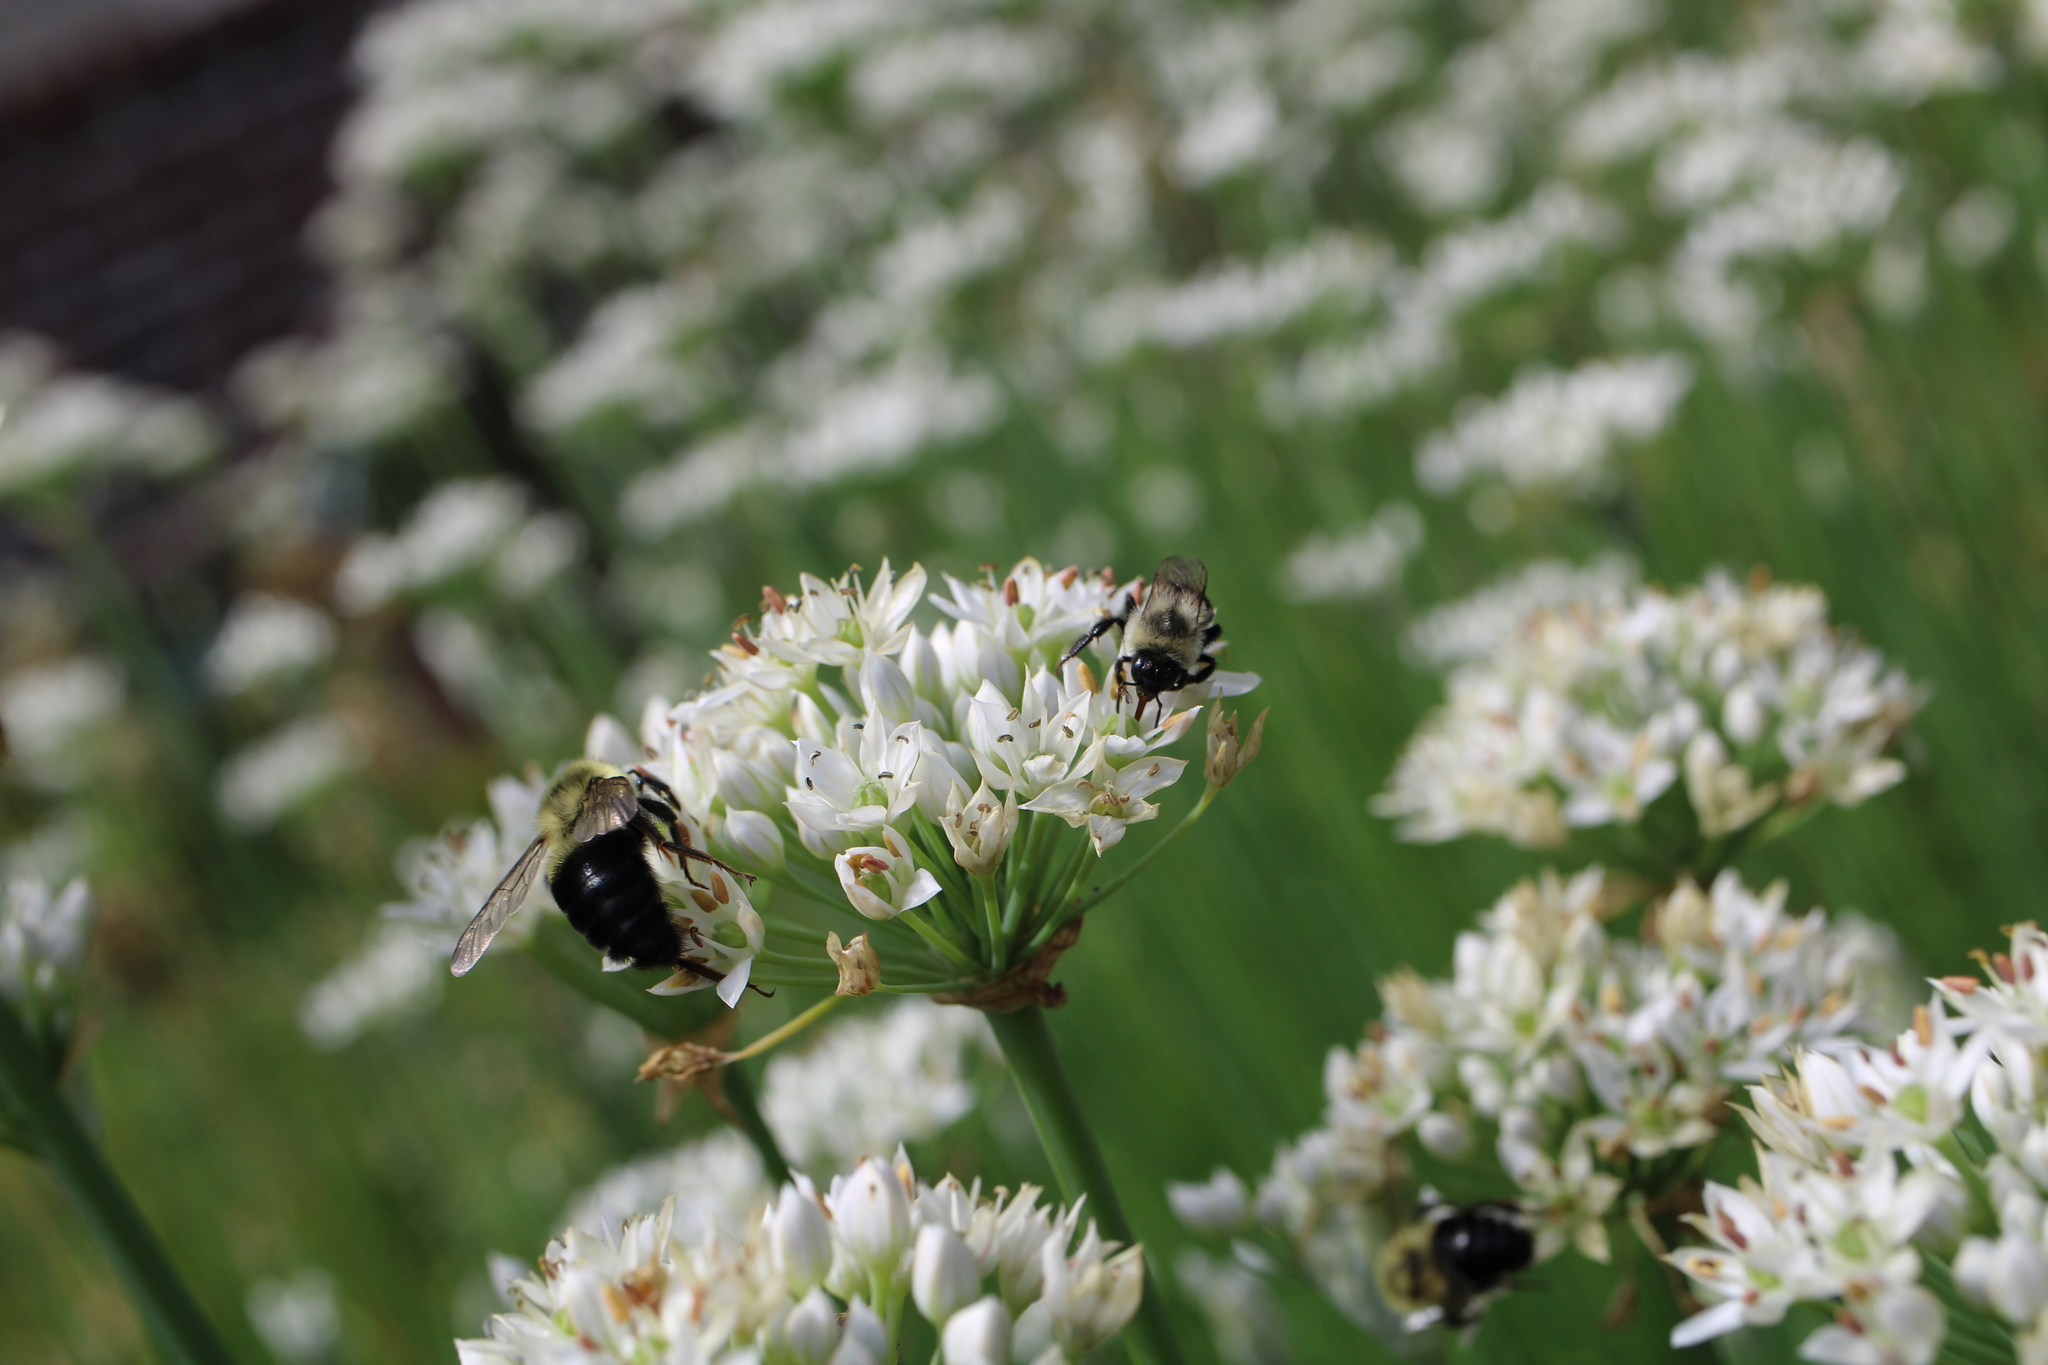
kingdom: Animalia
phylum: Arthropoda
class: Insecta
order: Hymenoptera
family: Apidae
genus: Bombus
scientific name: Bombus impatiens
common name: Common eastern bumble bee
